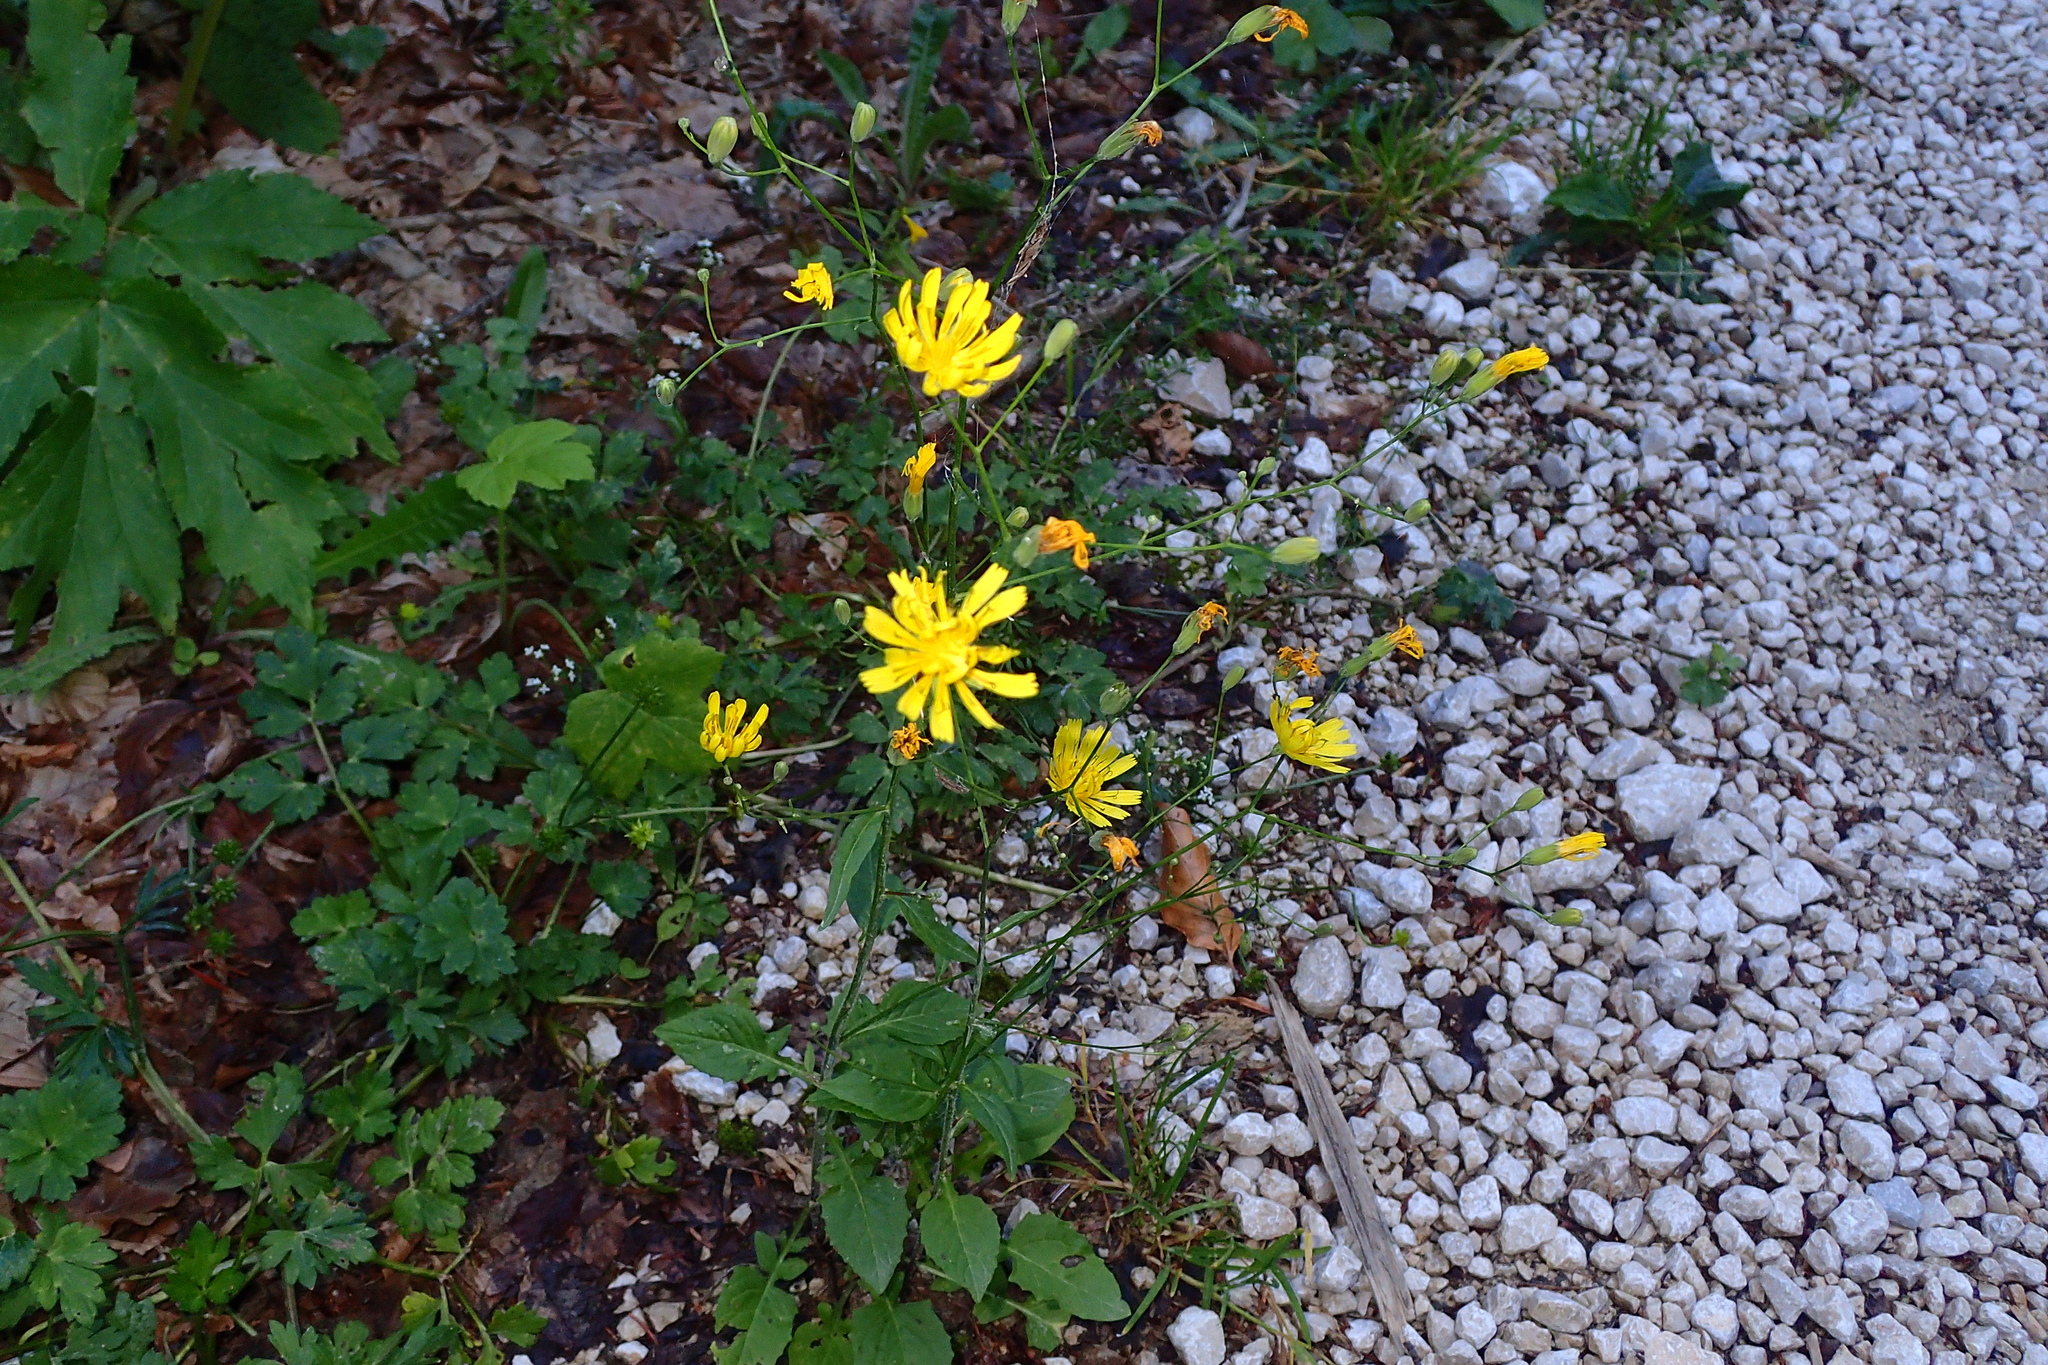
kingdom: Plantae
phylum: Tracheophyta
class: Magnoliopsida
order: Asterales
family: Asteraceae
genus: Lapsana
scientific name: Lapsana communis
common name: Nipplewort
